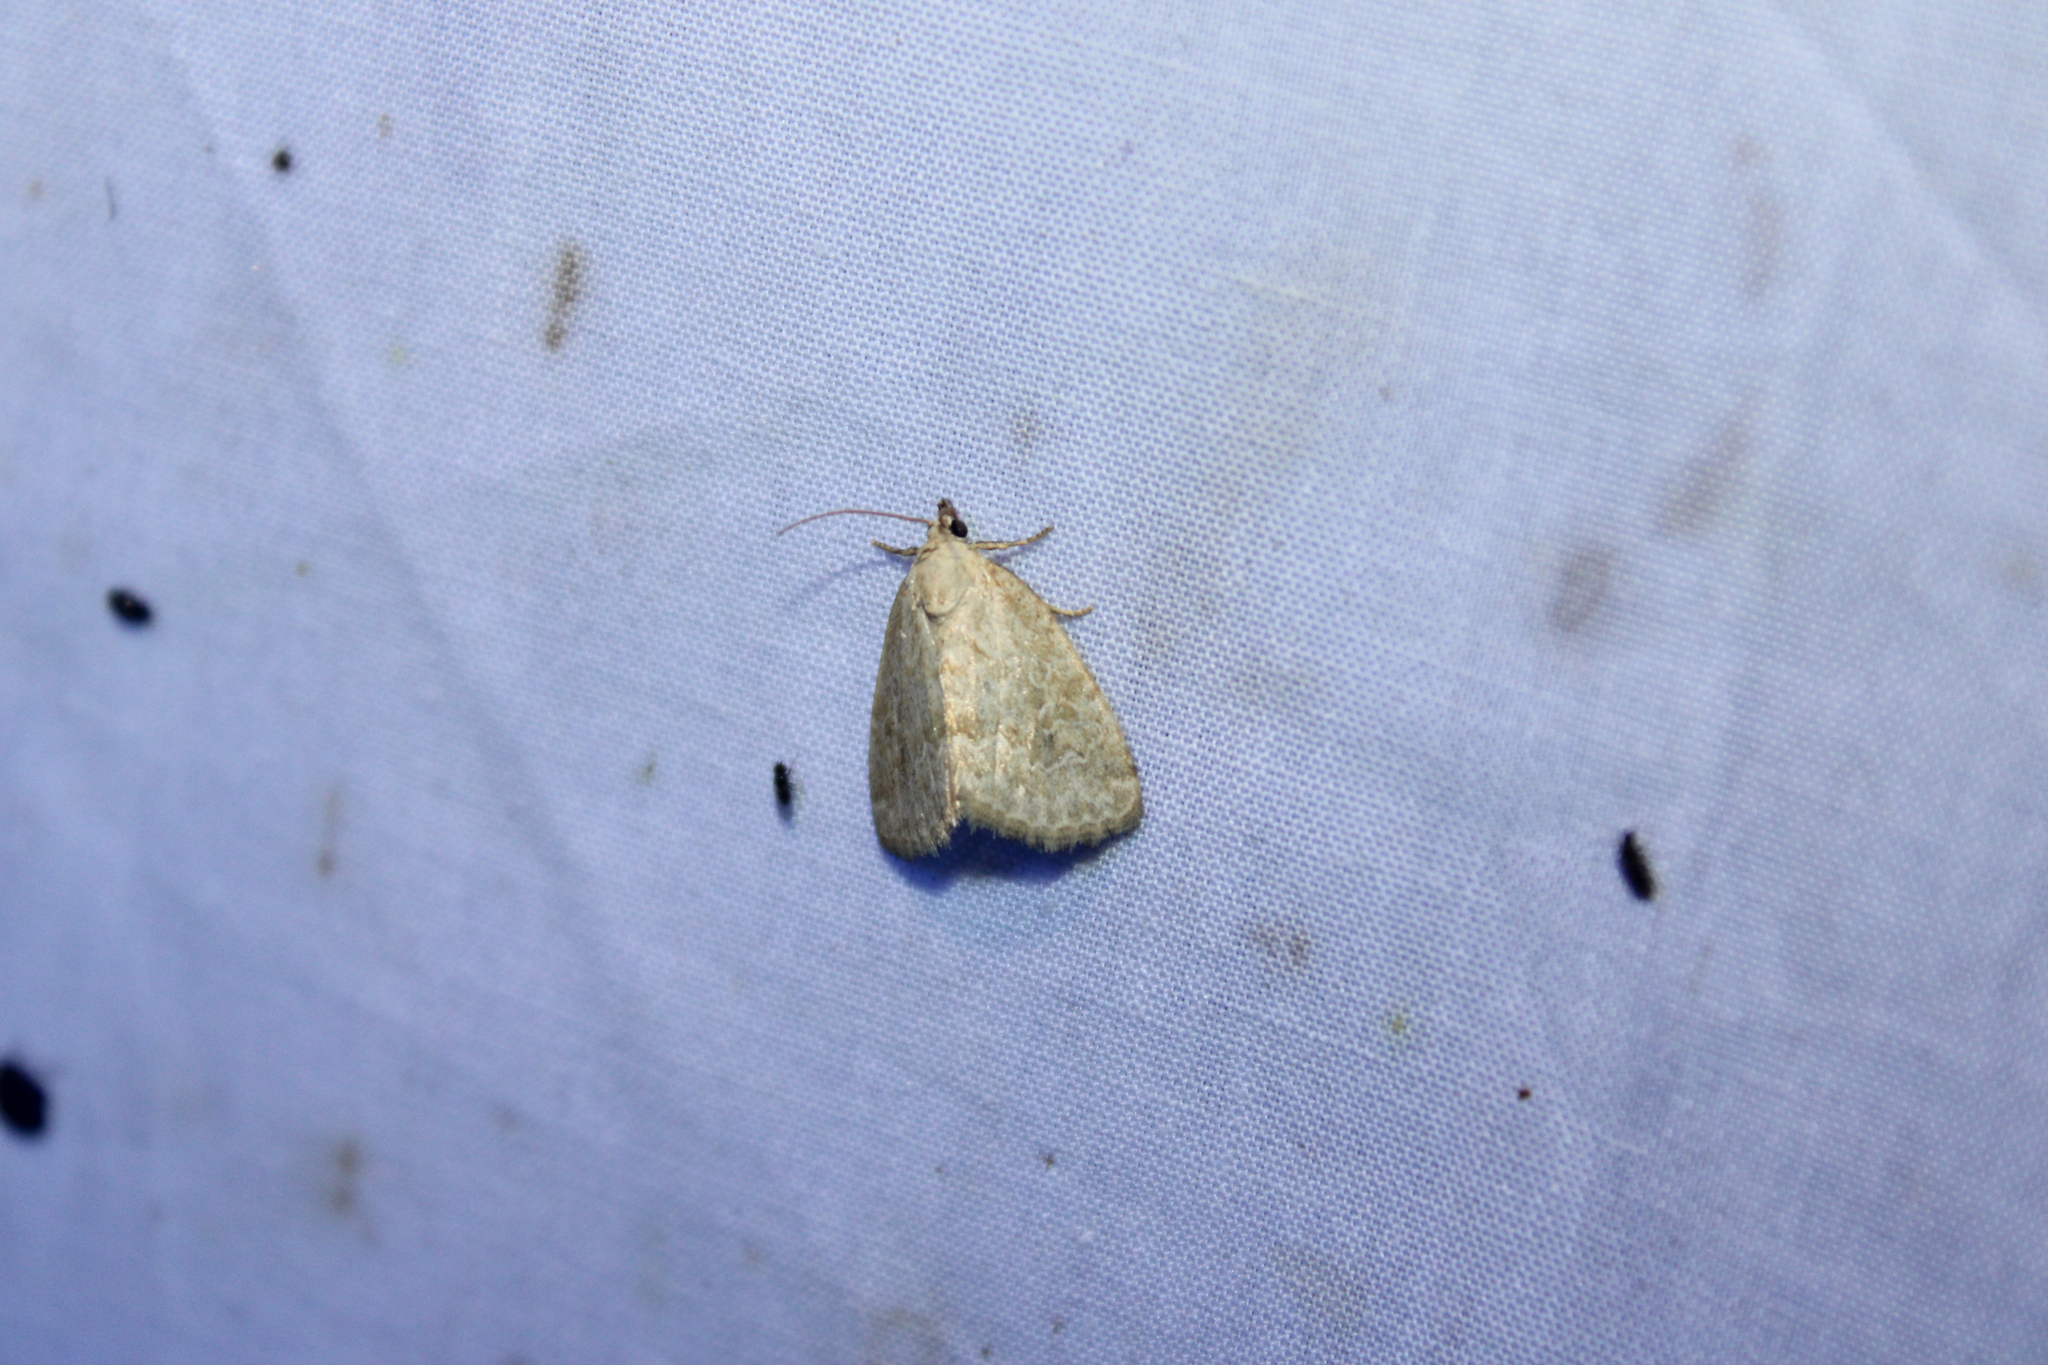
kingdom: Animalia
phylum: Arthropoda
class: Insecta
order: Lepidoptera
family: Noctuidae
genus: Protodeltote
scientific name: Protodeltote albidula
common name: Pale glyph
